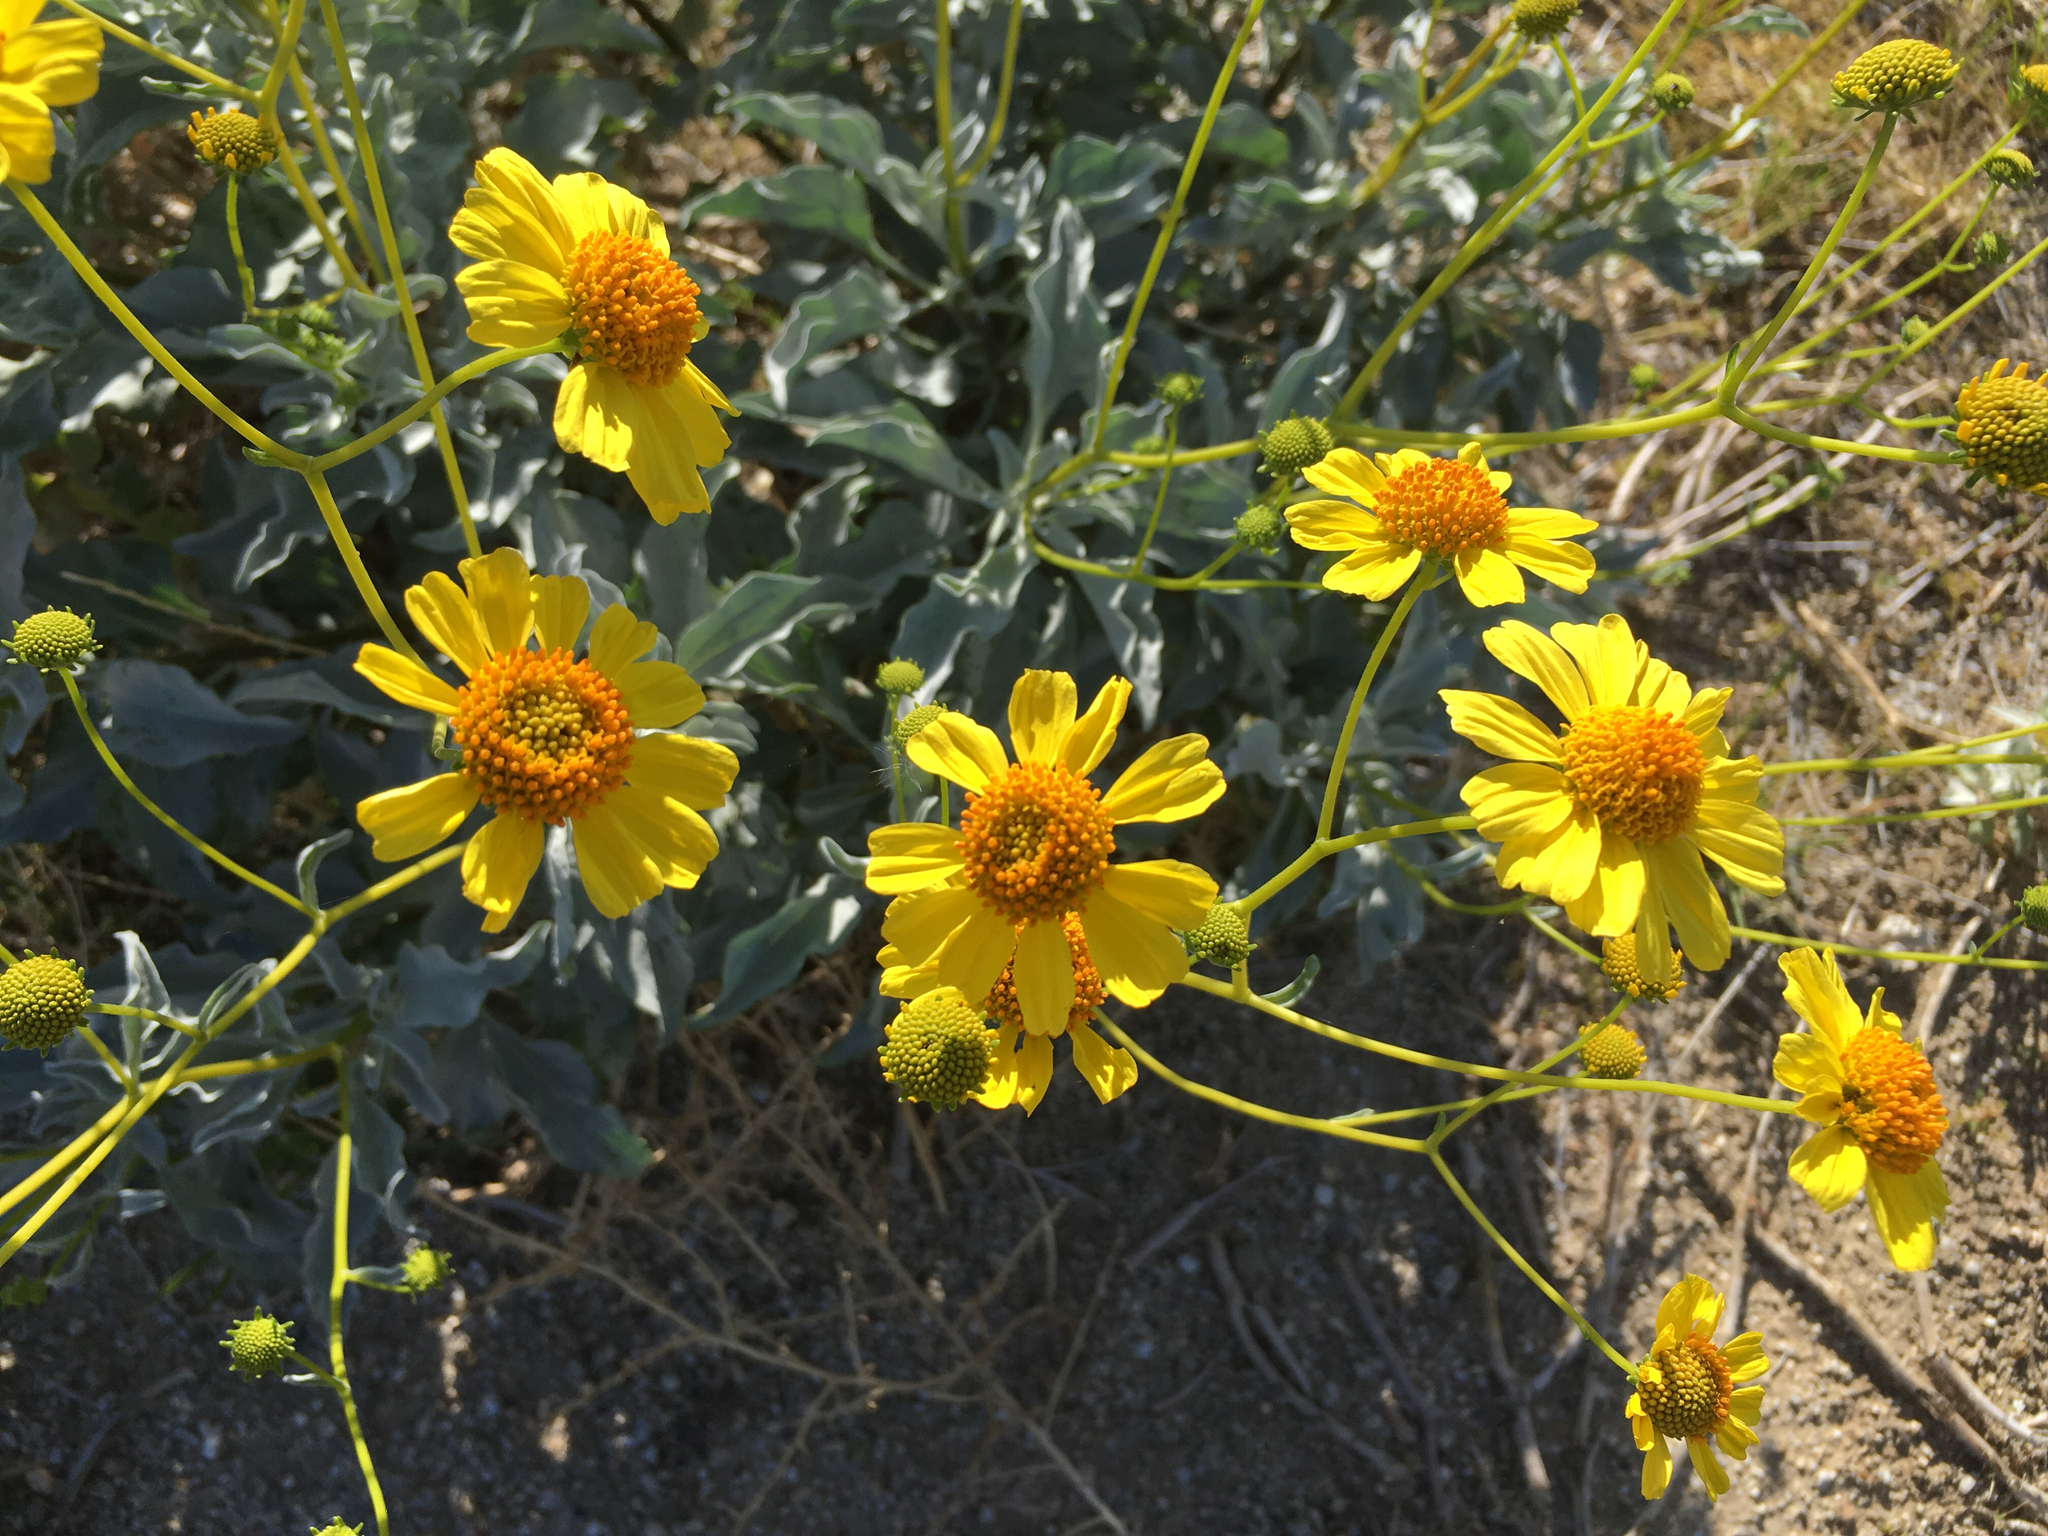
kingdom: Plantae
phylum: Tracheophyta
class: Magnoliopsida
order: Asterales
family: Asteraceae
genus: Encelia
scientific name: Encelia farinosa
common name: Brittlebush
